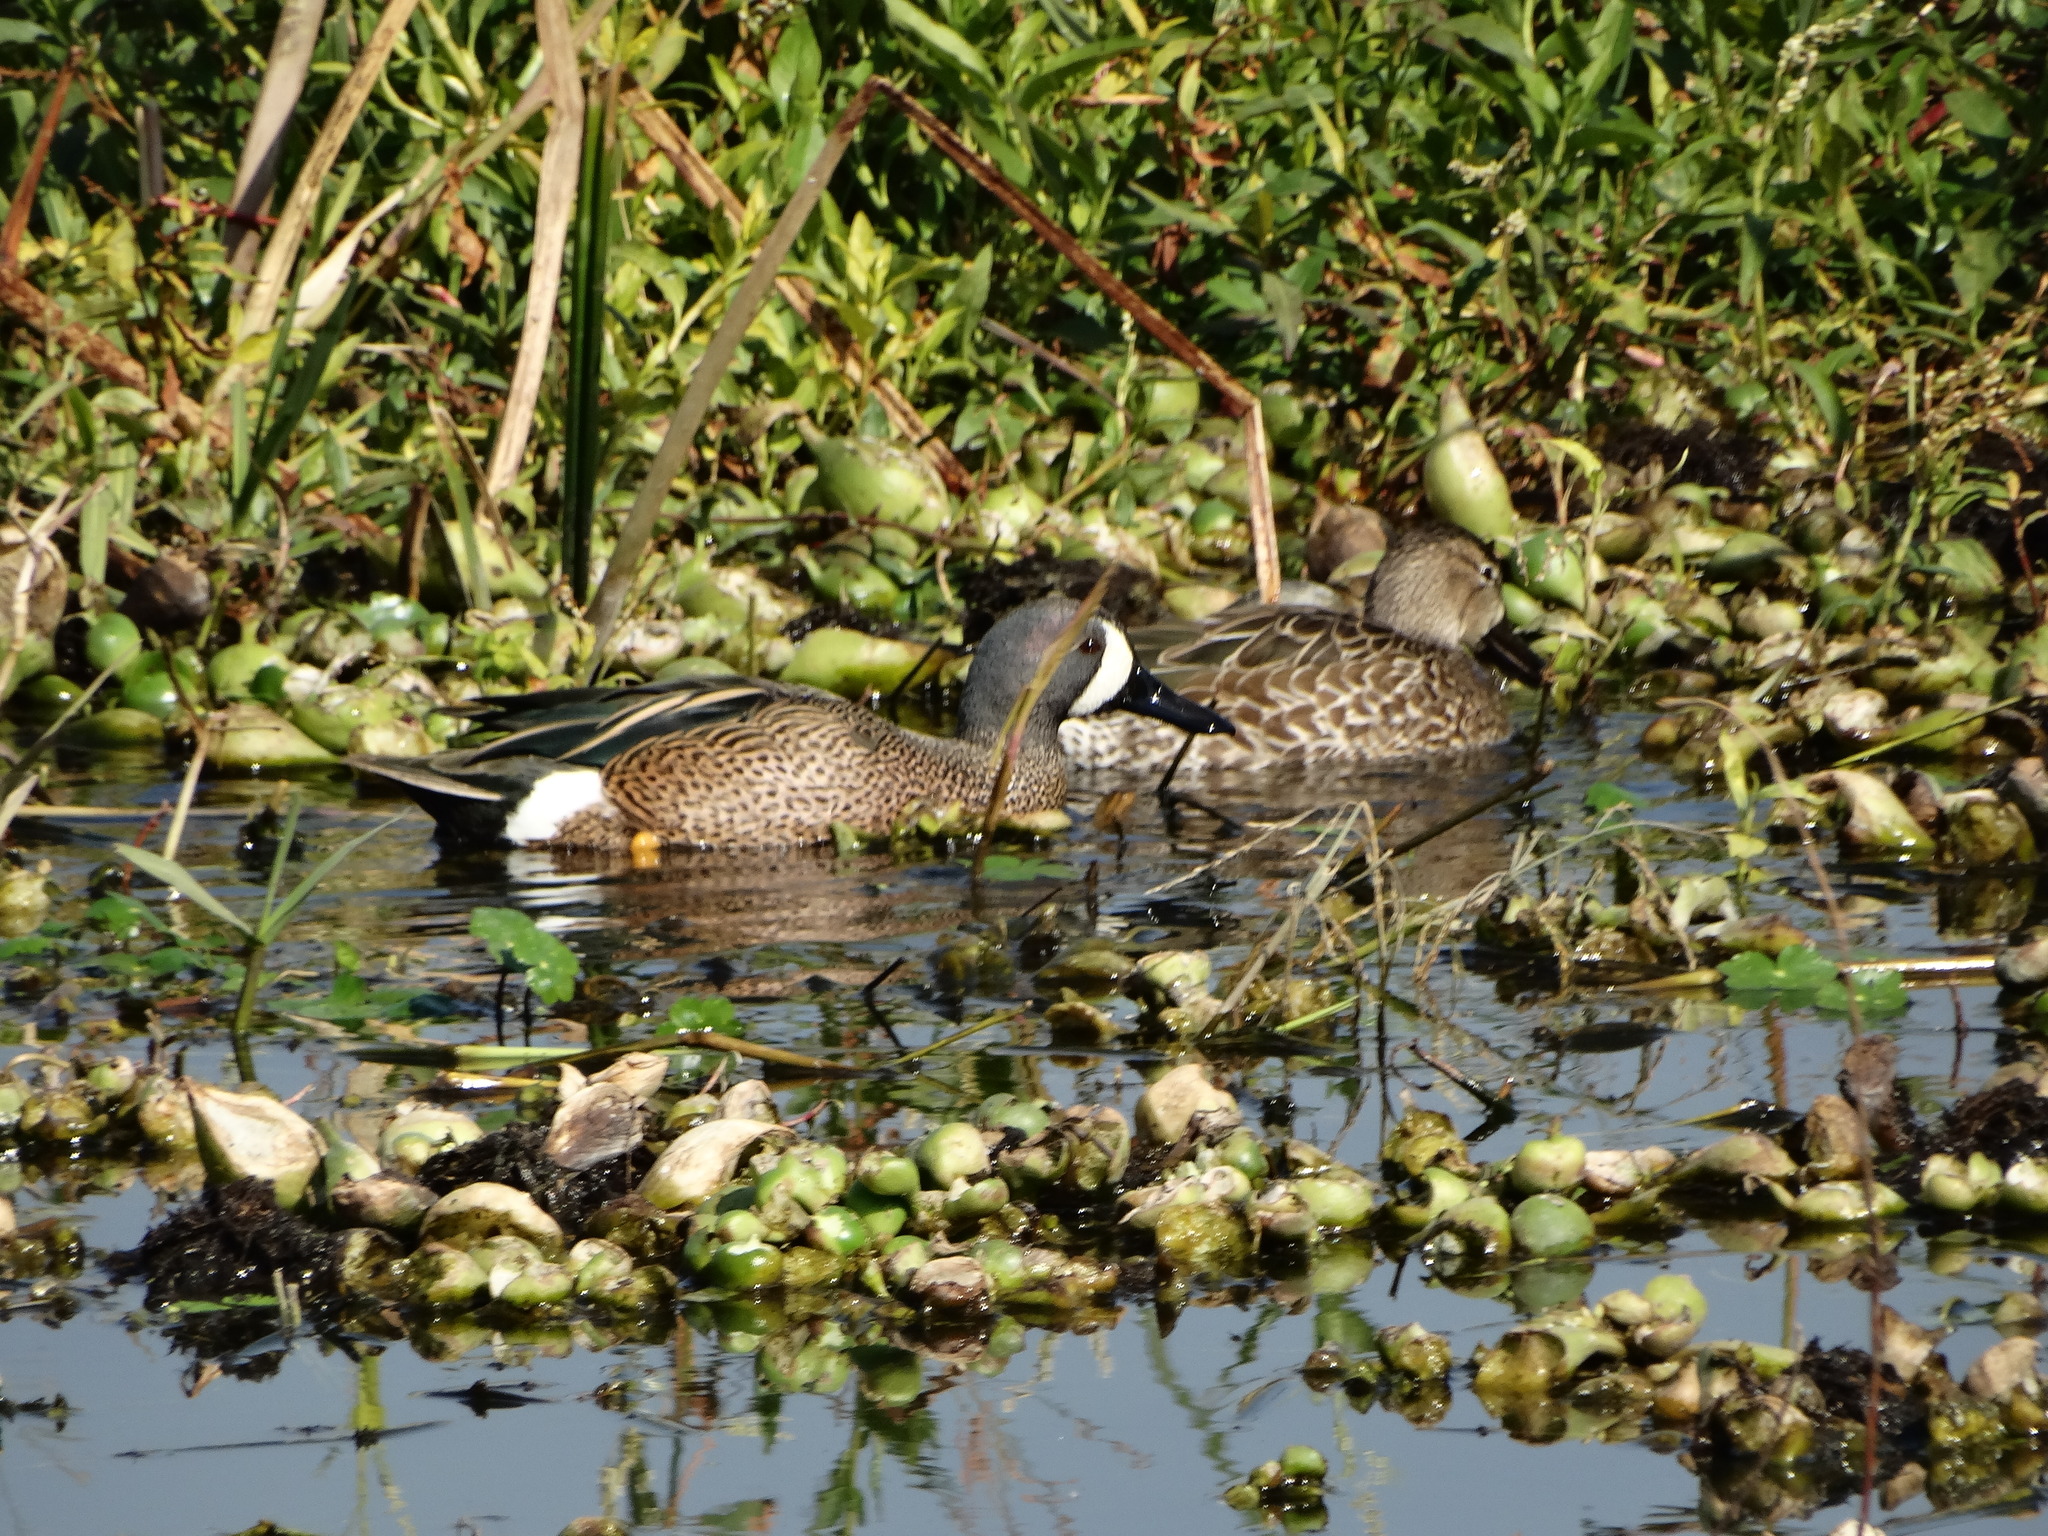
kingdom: Animalia
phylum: Chordata
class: Aves
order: Anseriformes
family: Anatidae
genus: Spatula
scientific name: Spatula discors
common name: Blue-winged teal
